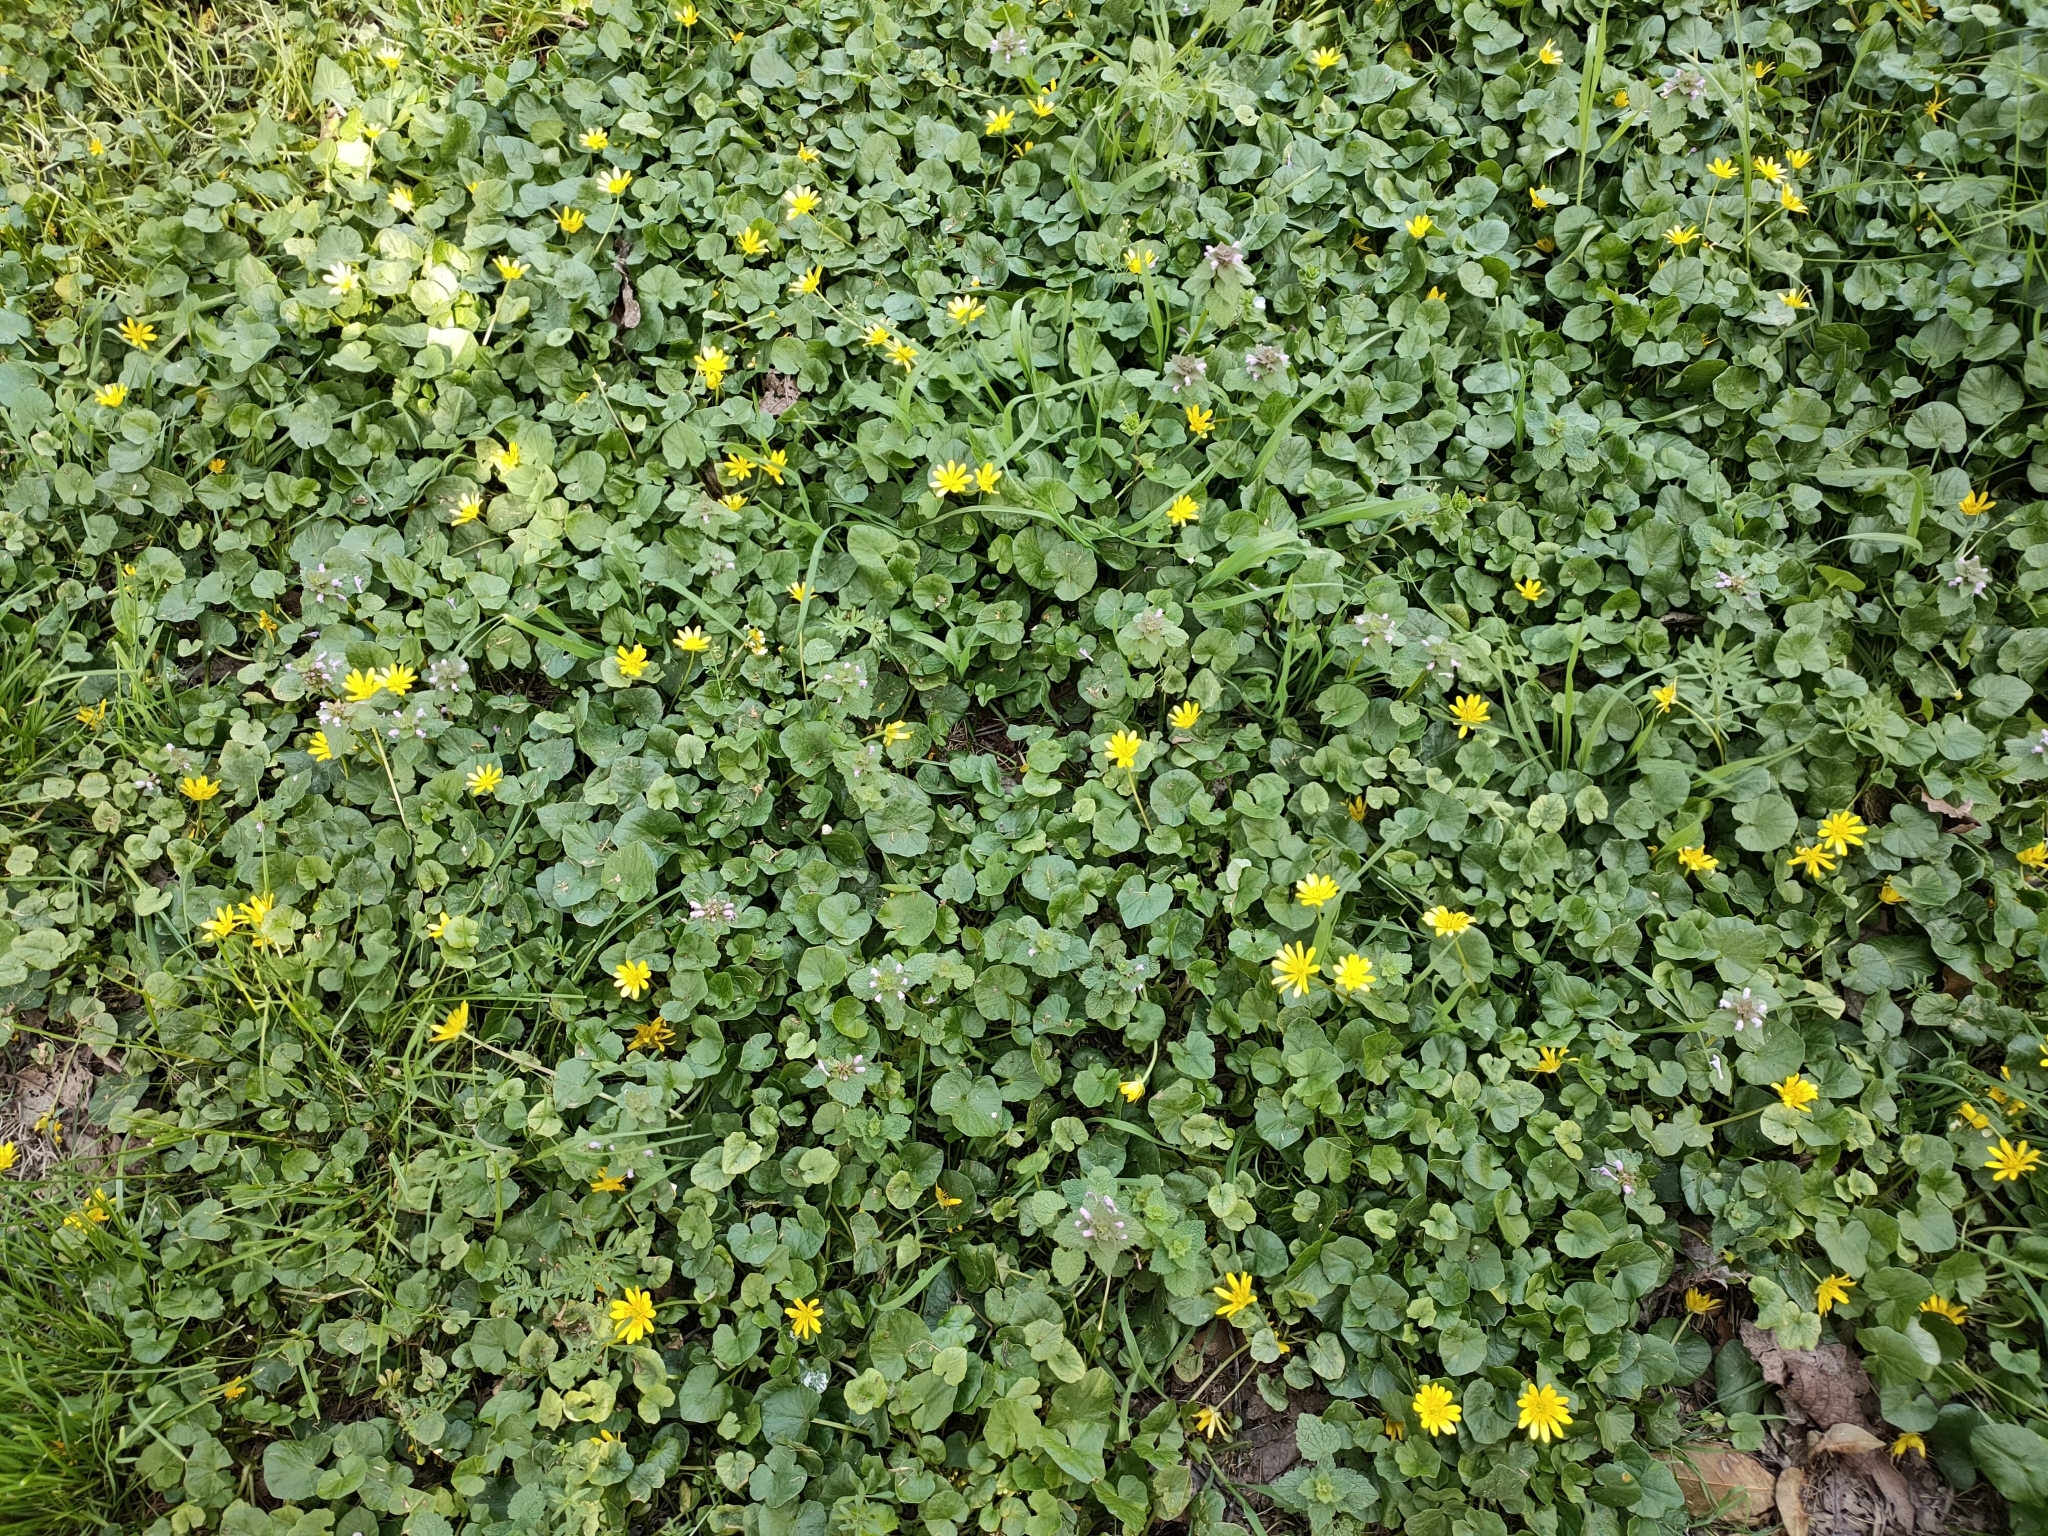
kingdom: Plantae
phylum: Tracheophyta
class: Magnoliopsida
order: Ranunculales
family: Ranunculaceae
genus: Ficaria
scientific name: Ficaria verna
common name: Lesser celandine
